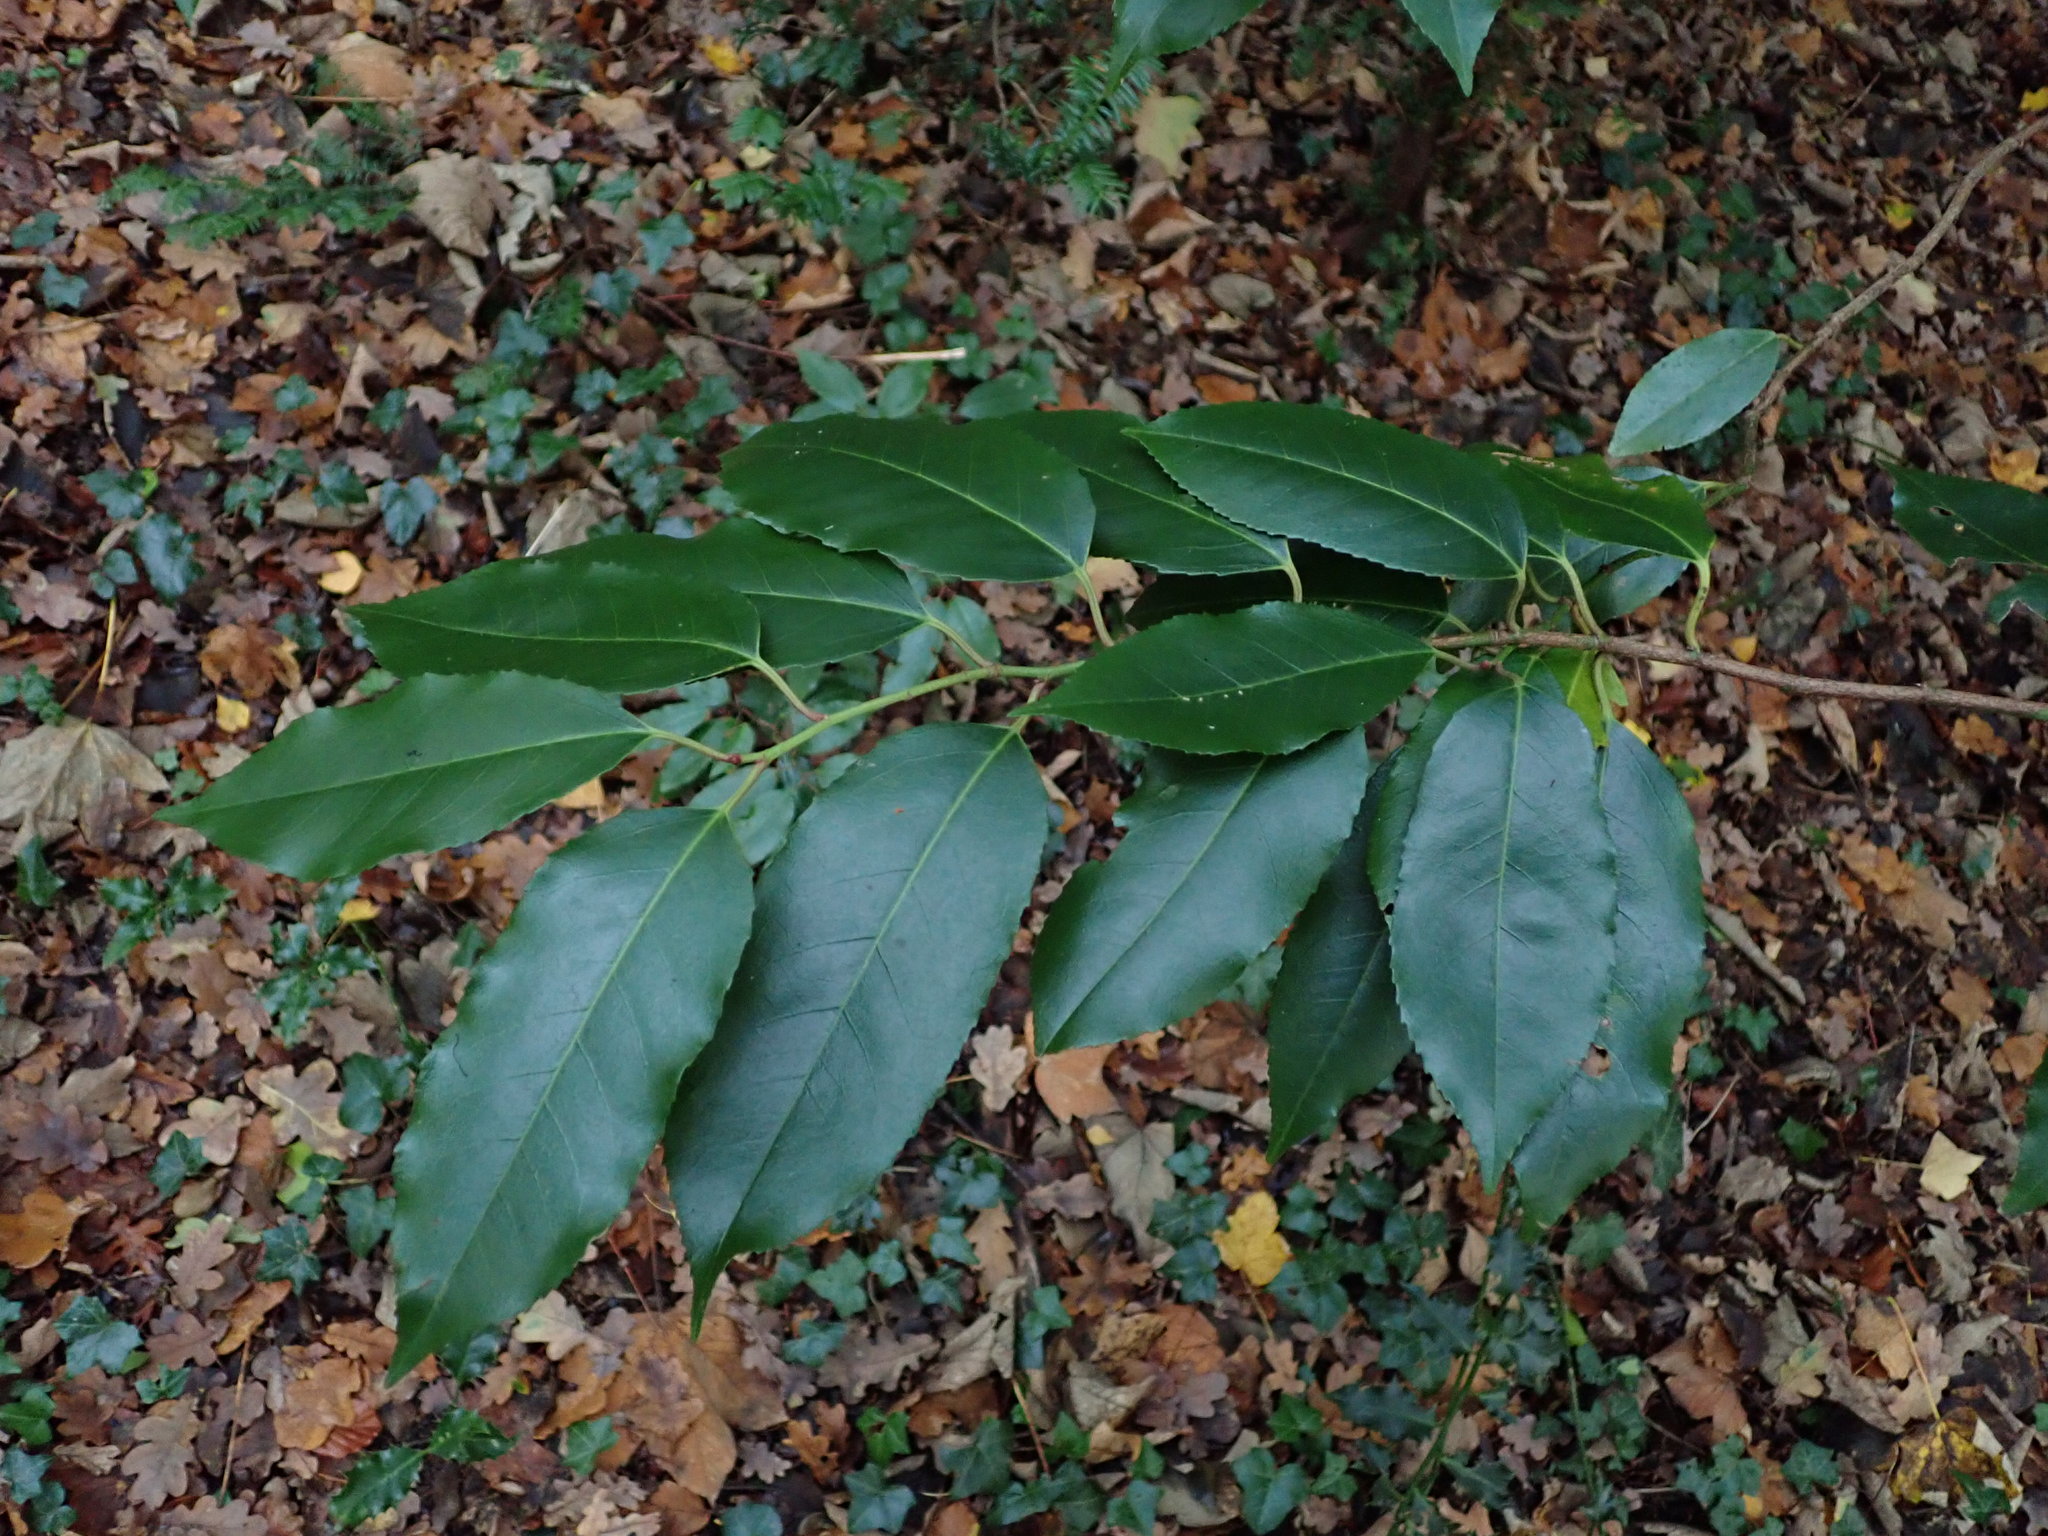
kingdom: Plantae
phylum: Tracheophyta
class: Magnoliopsida
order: Rosales
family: Rosaceae
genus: Prunus
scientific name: Prunus lusitanica
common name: Portugal laurel
